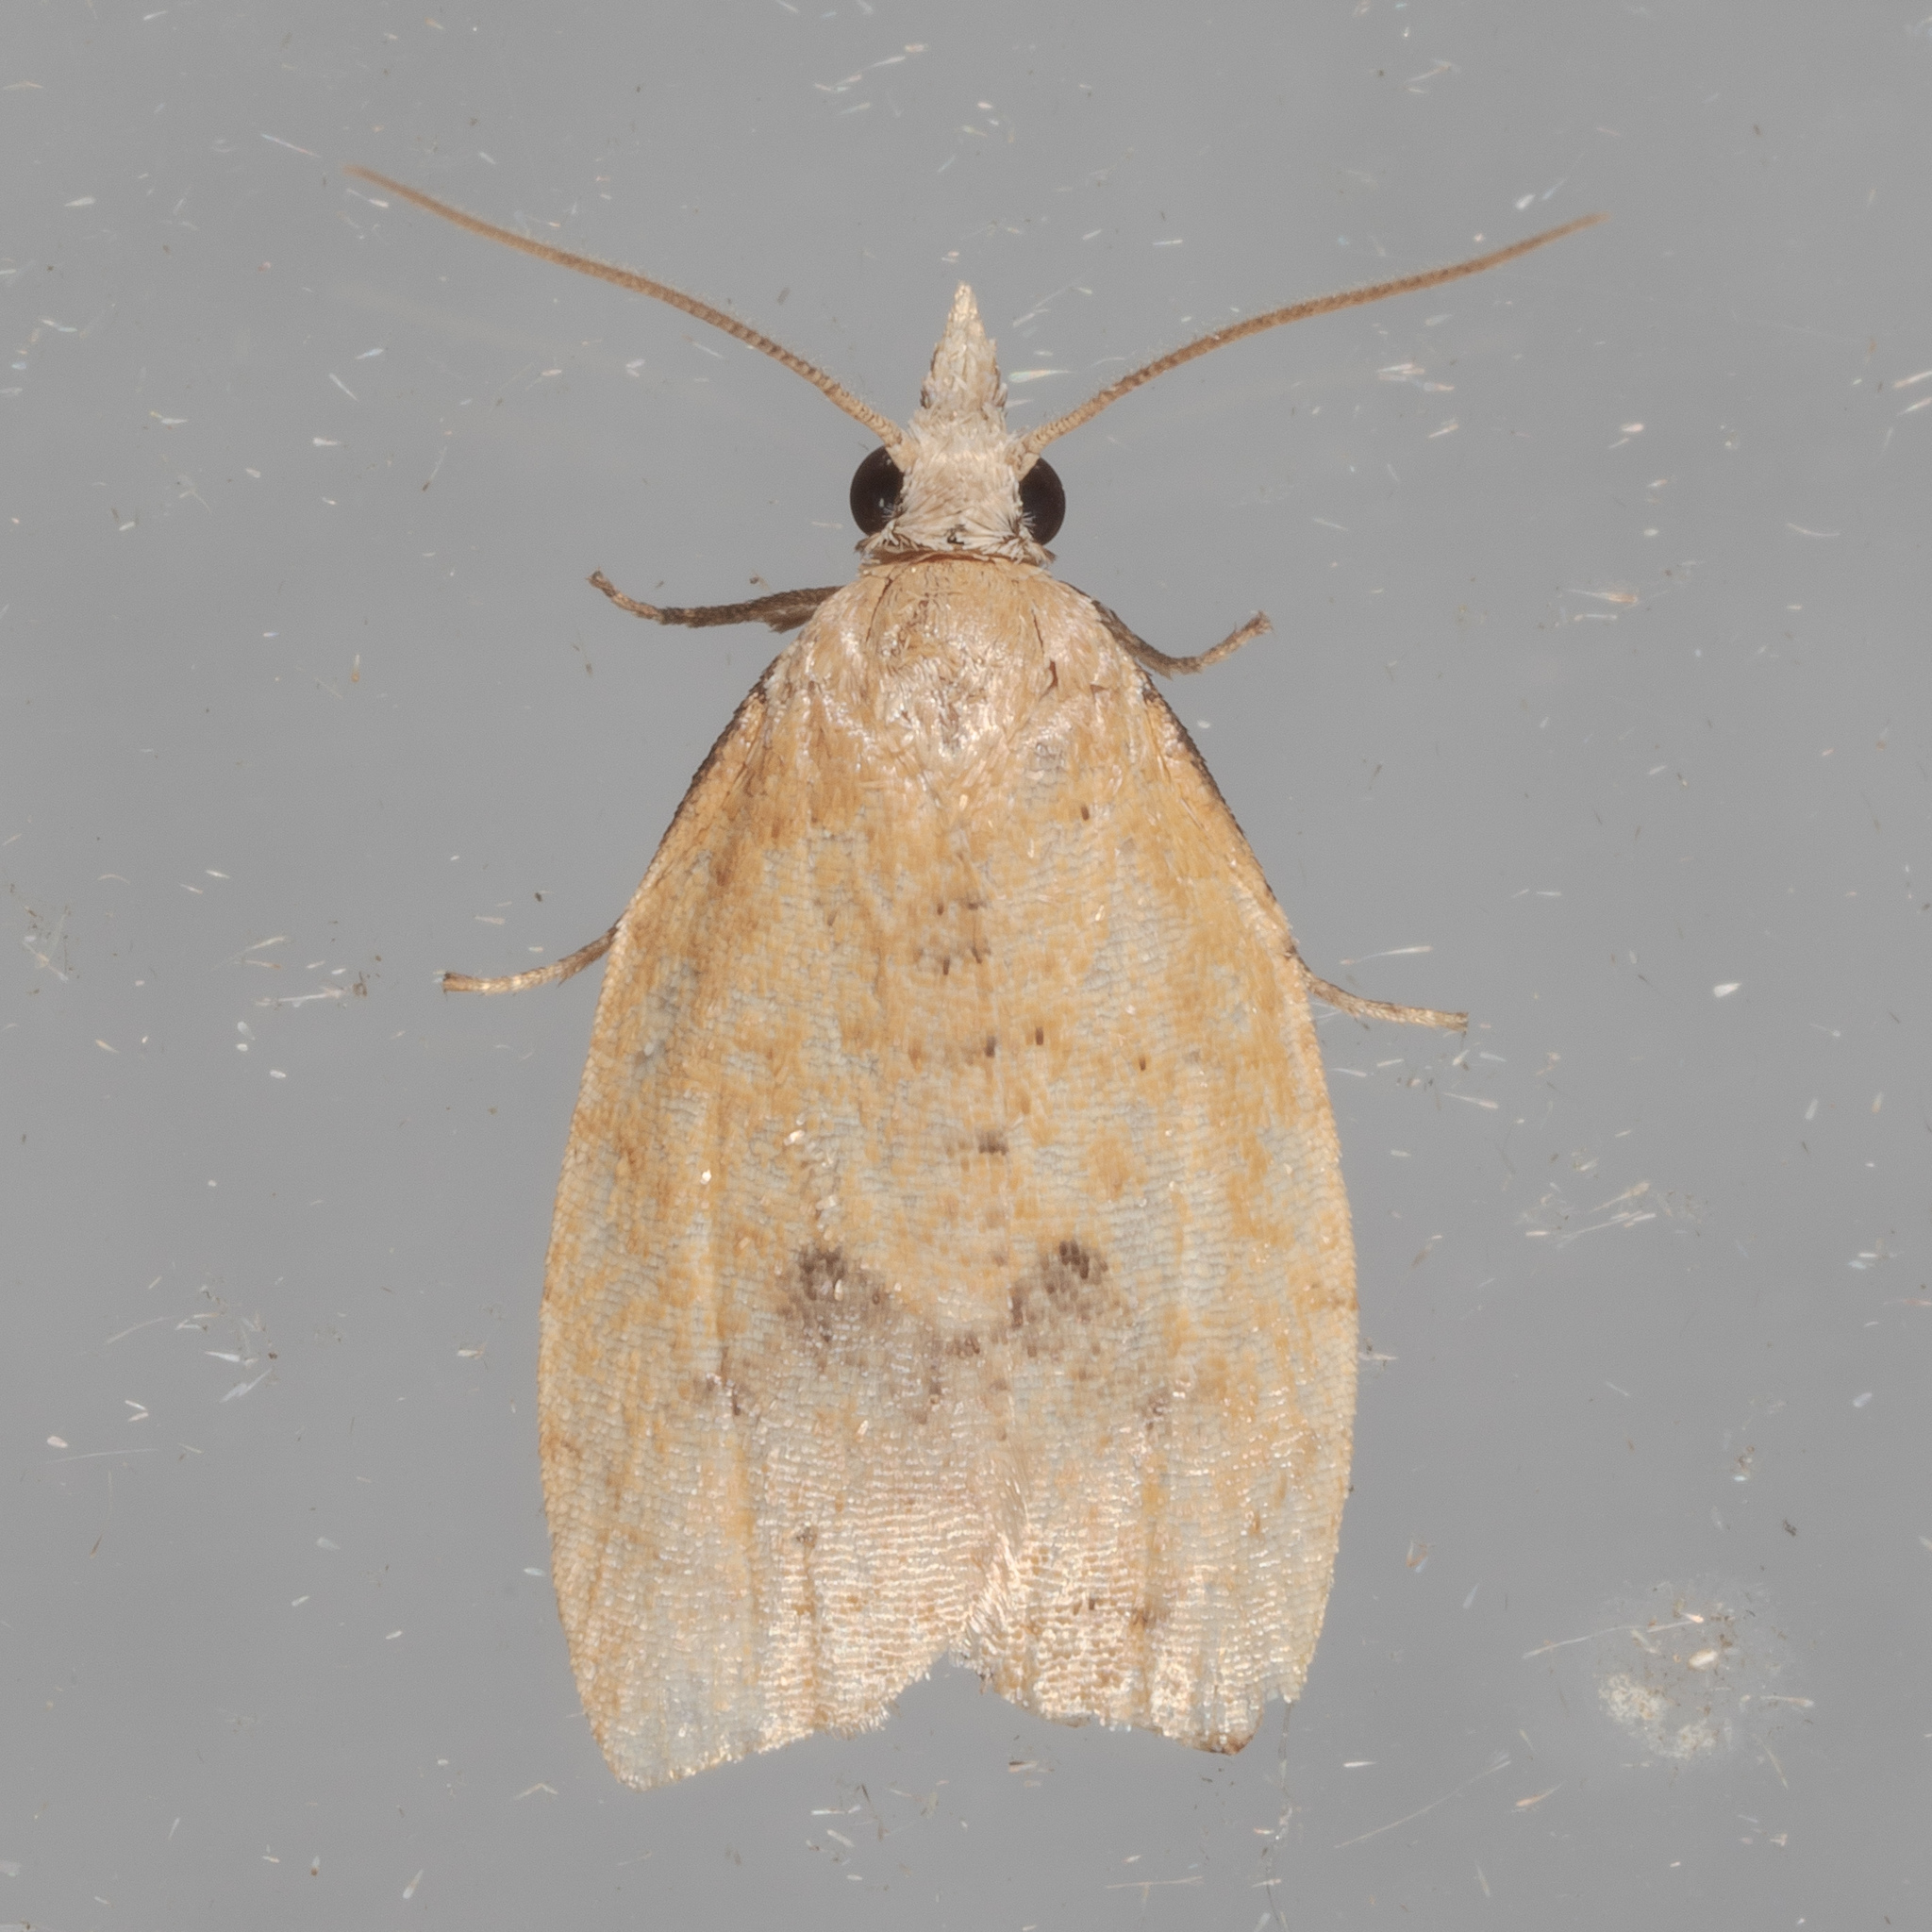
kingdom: Animalia
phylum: Arthropoda
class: Insecta
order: Lepidoptera
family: Tortricidae
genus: Sparganothoides
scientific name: Sparganothoides lentiginosana
